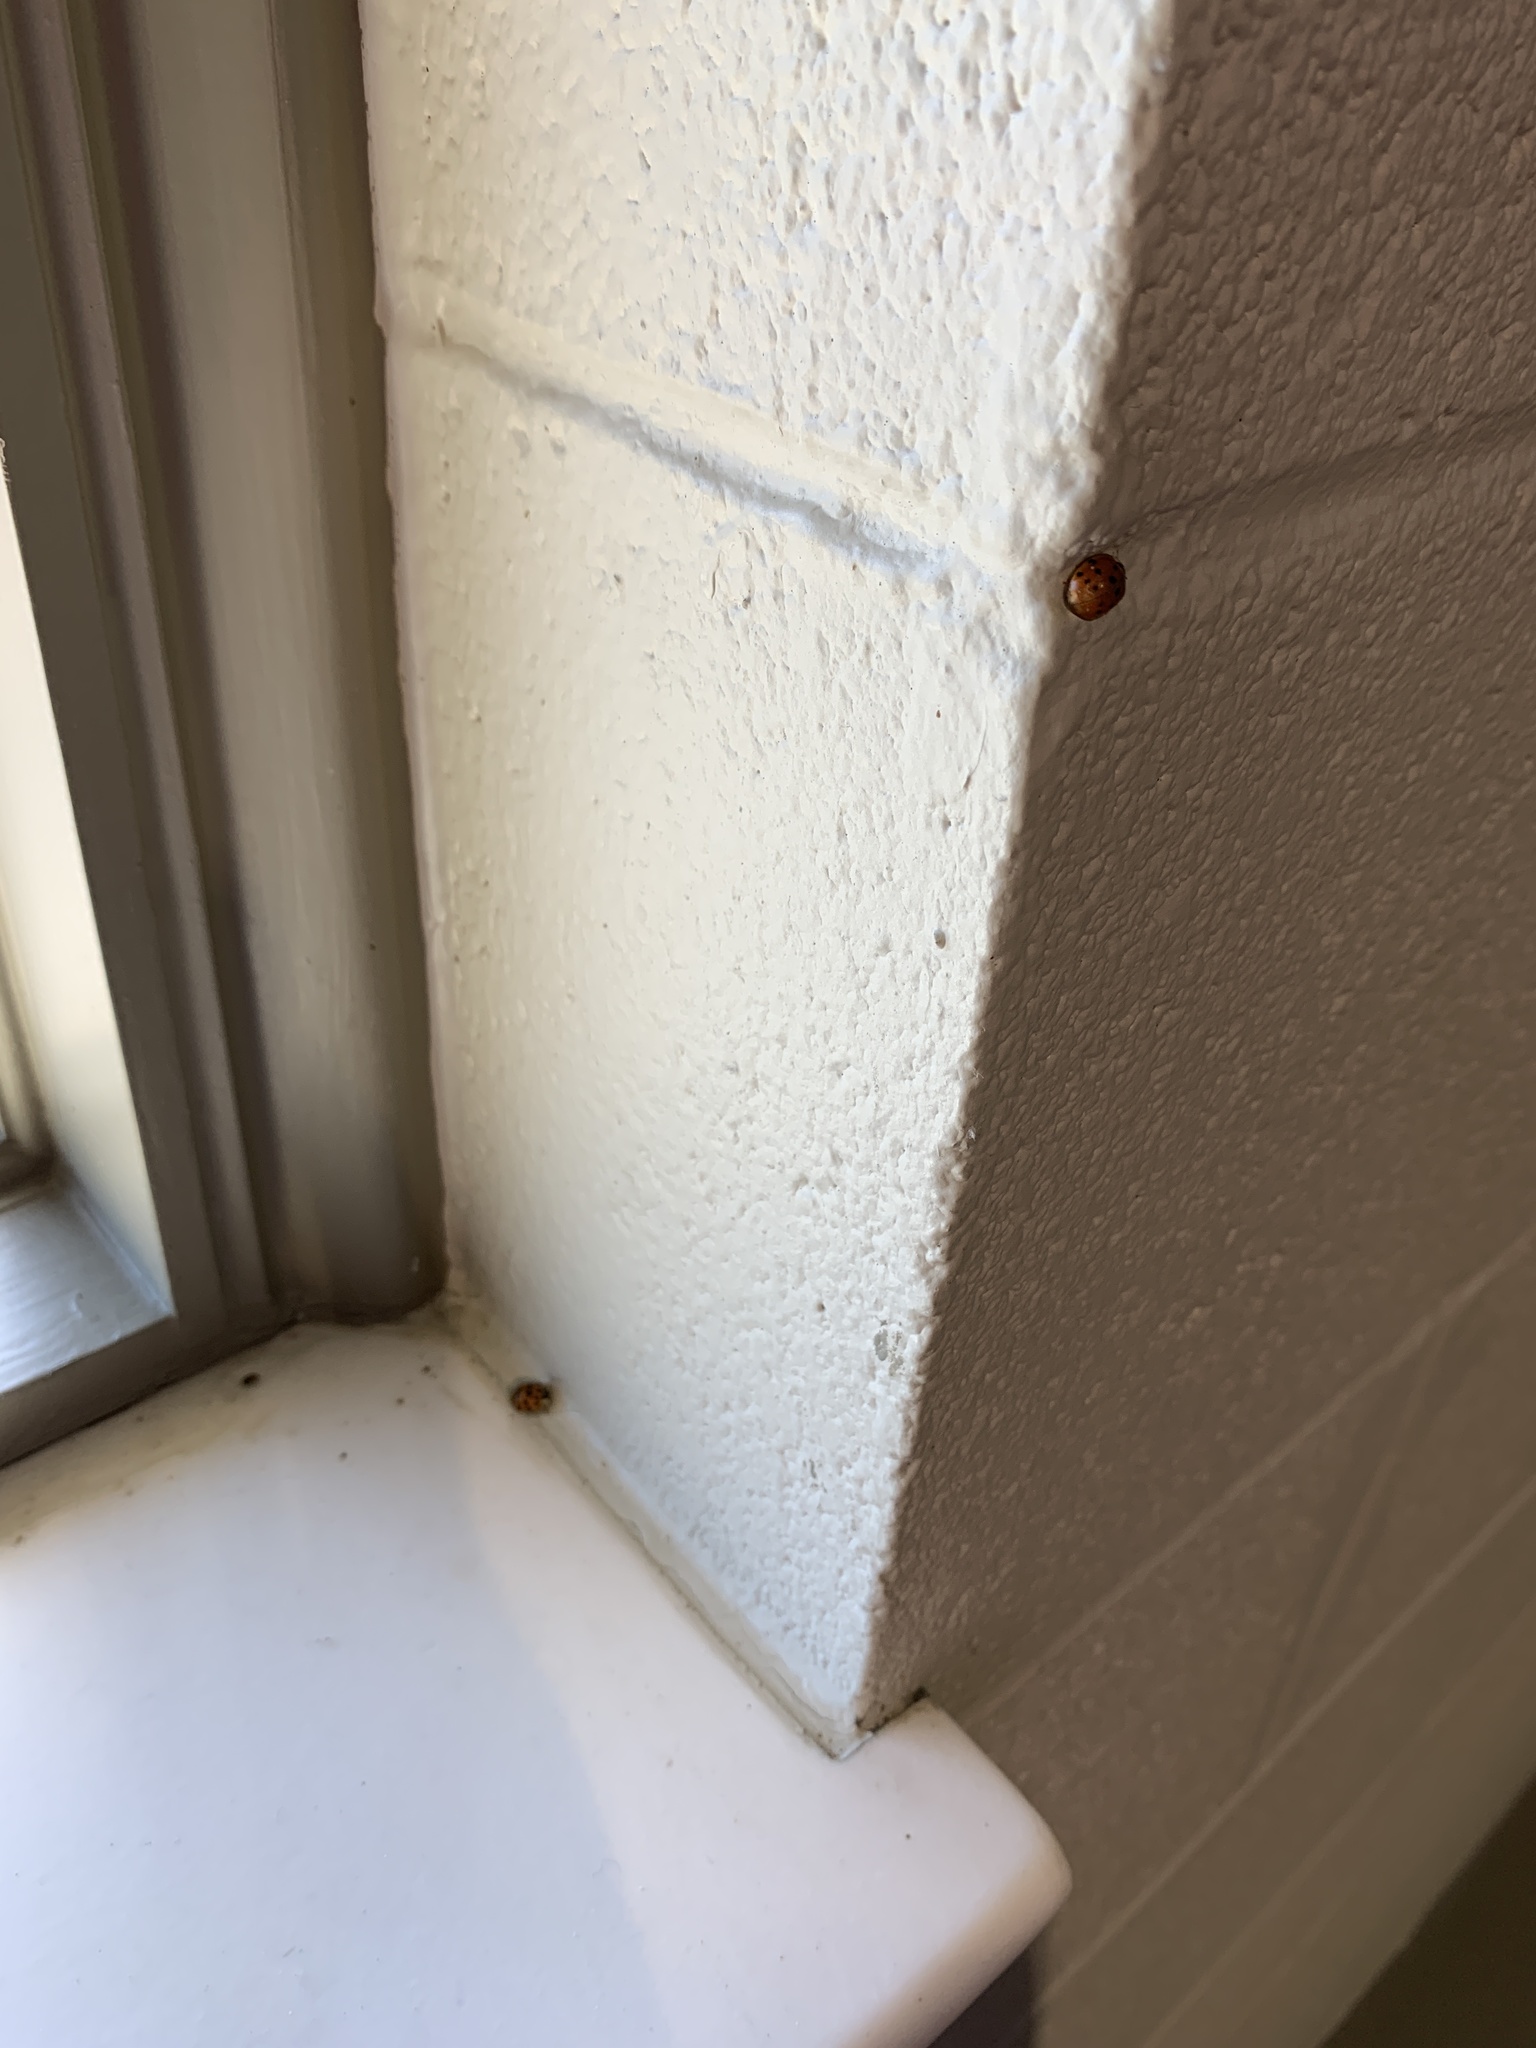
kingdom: Animalia
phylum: Arthropoda
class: Insecta
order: Coleoptera
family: Coccinellidae
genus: Harmonia
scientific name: Harmonia axyridis
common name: Harlequin ladybird
